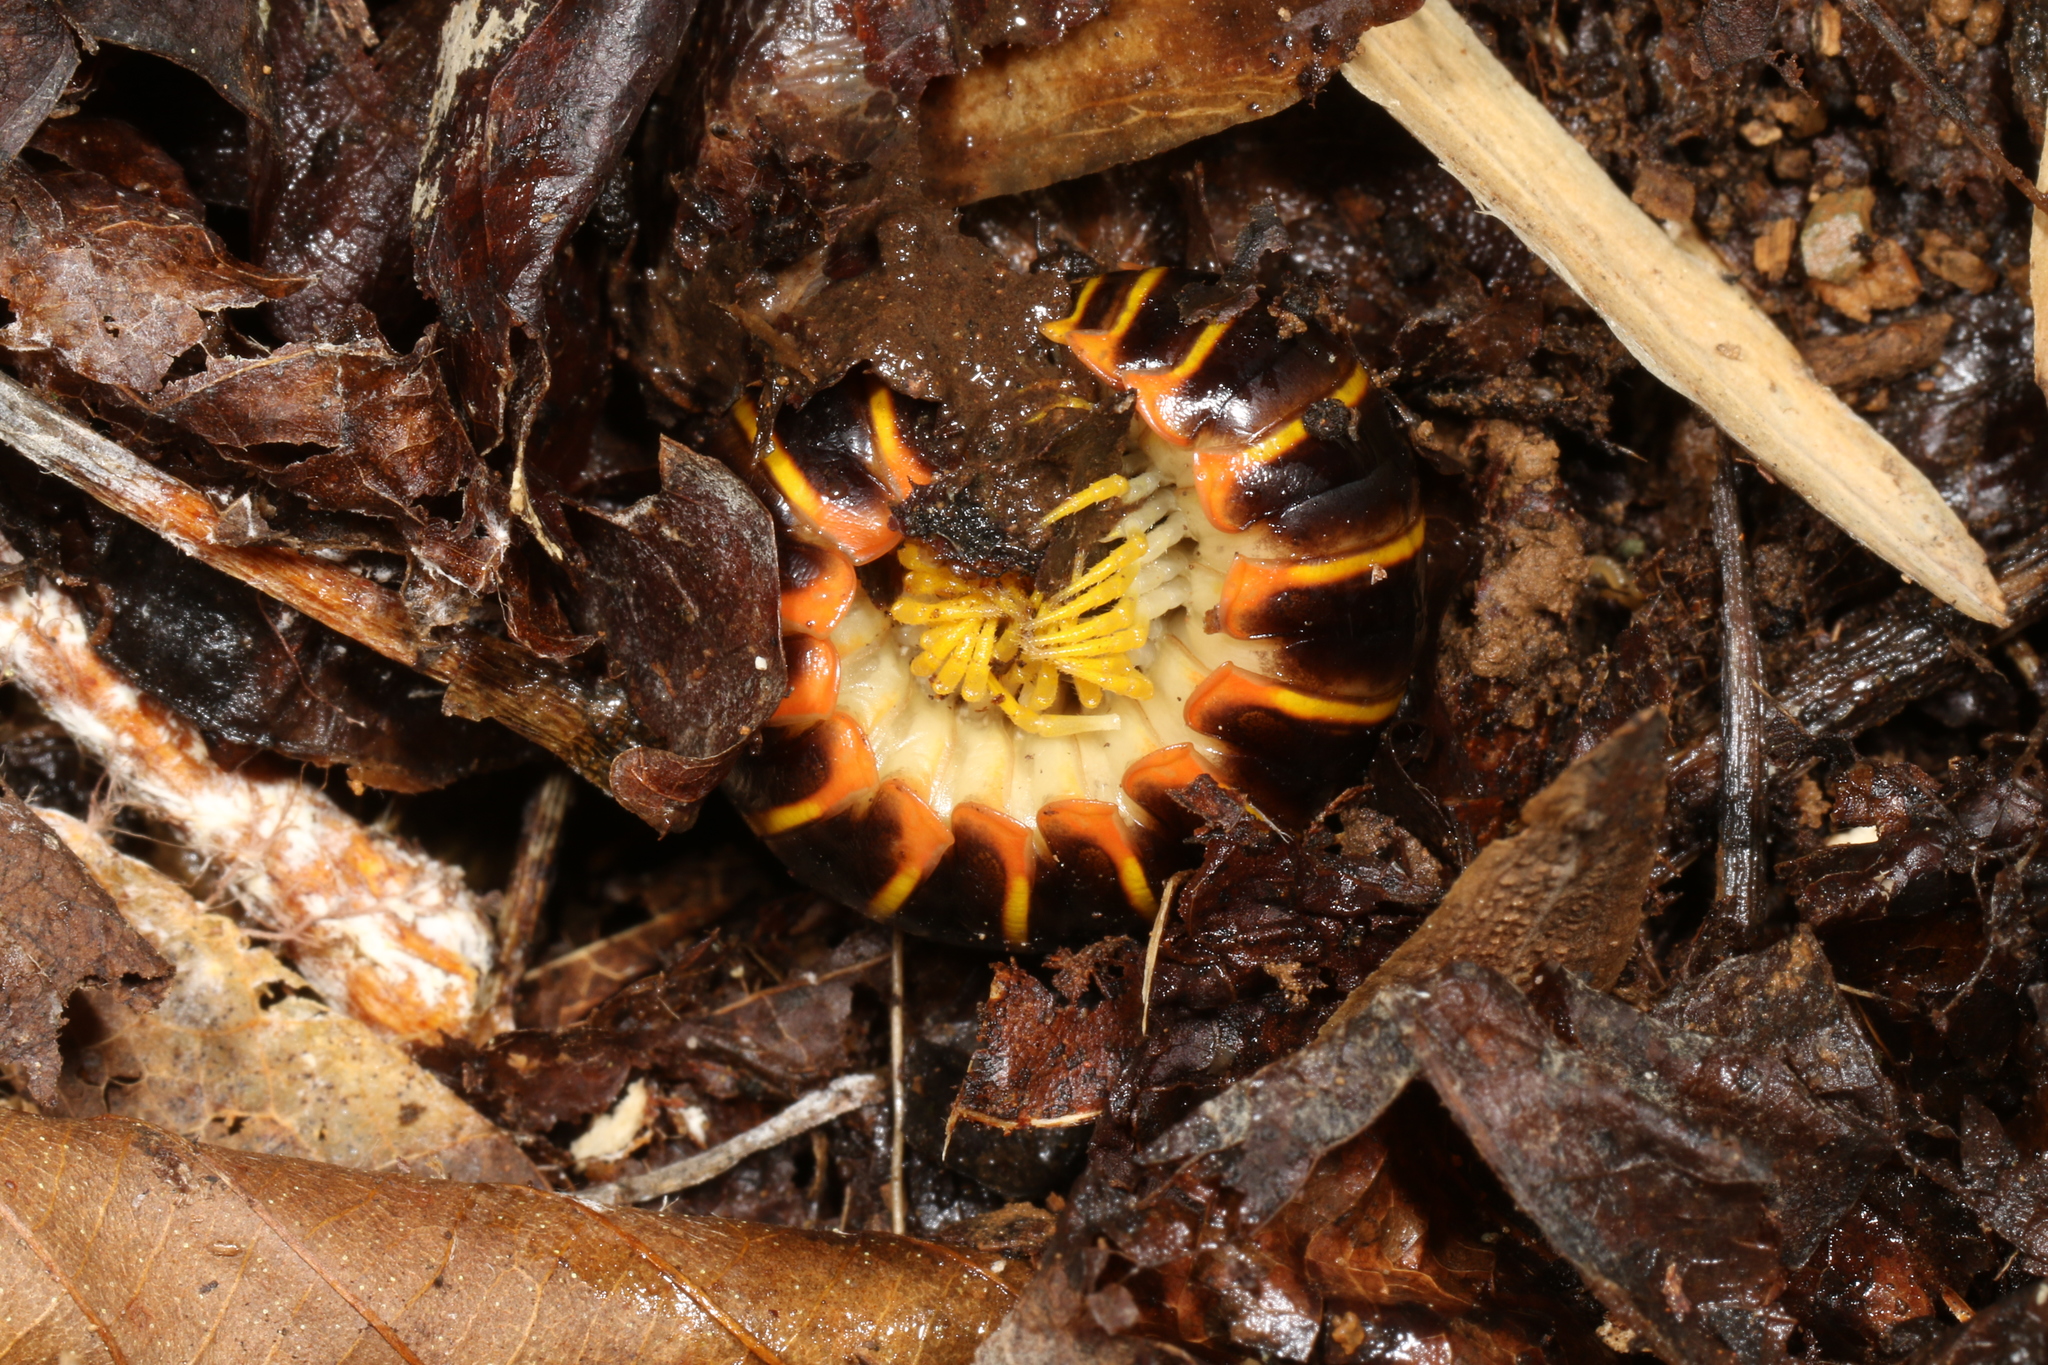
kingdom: Animalia
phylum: Arthropoda
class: Diplopoda
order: Polydesmida
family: Xystodesmidae
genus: Apheloria
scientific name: Apheloria virginiensis
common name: Black-and-gold flat millipede
